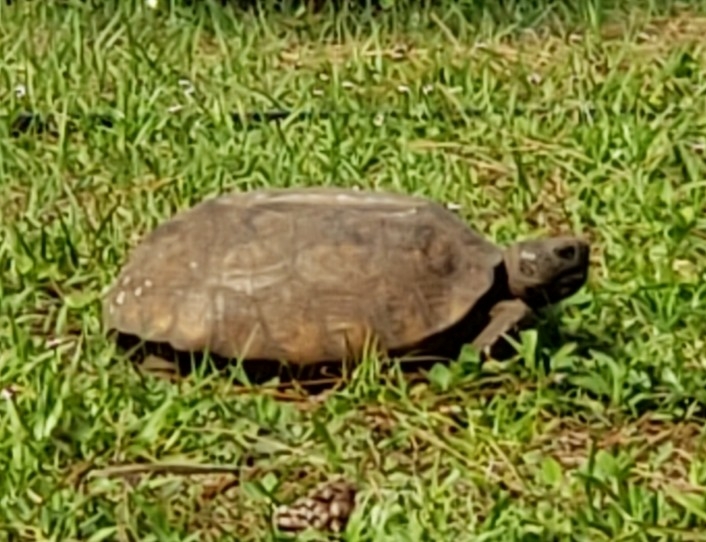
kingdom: Animalia
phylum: Chordata
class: Testudines
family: Testudinidae
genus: Gopherus
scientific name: Gopherus polyphemus
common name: Florida gopher tortoise
